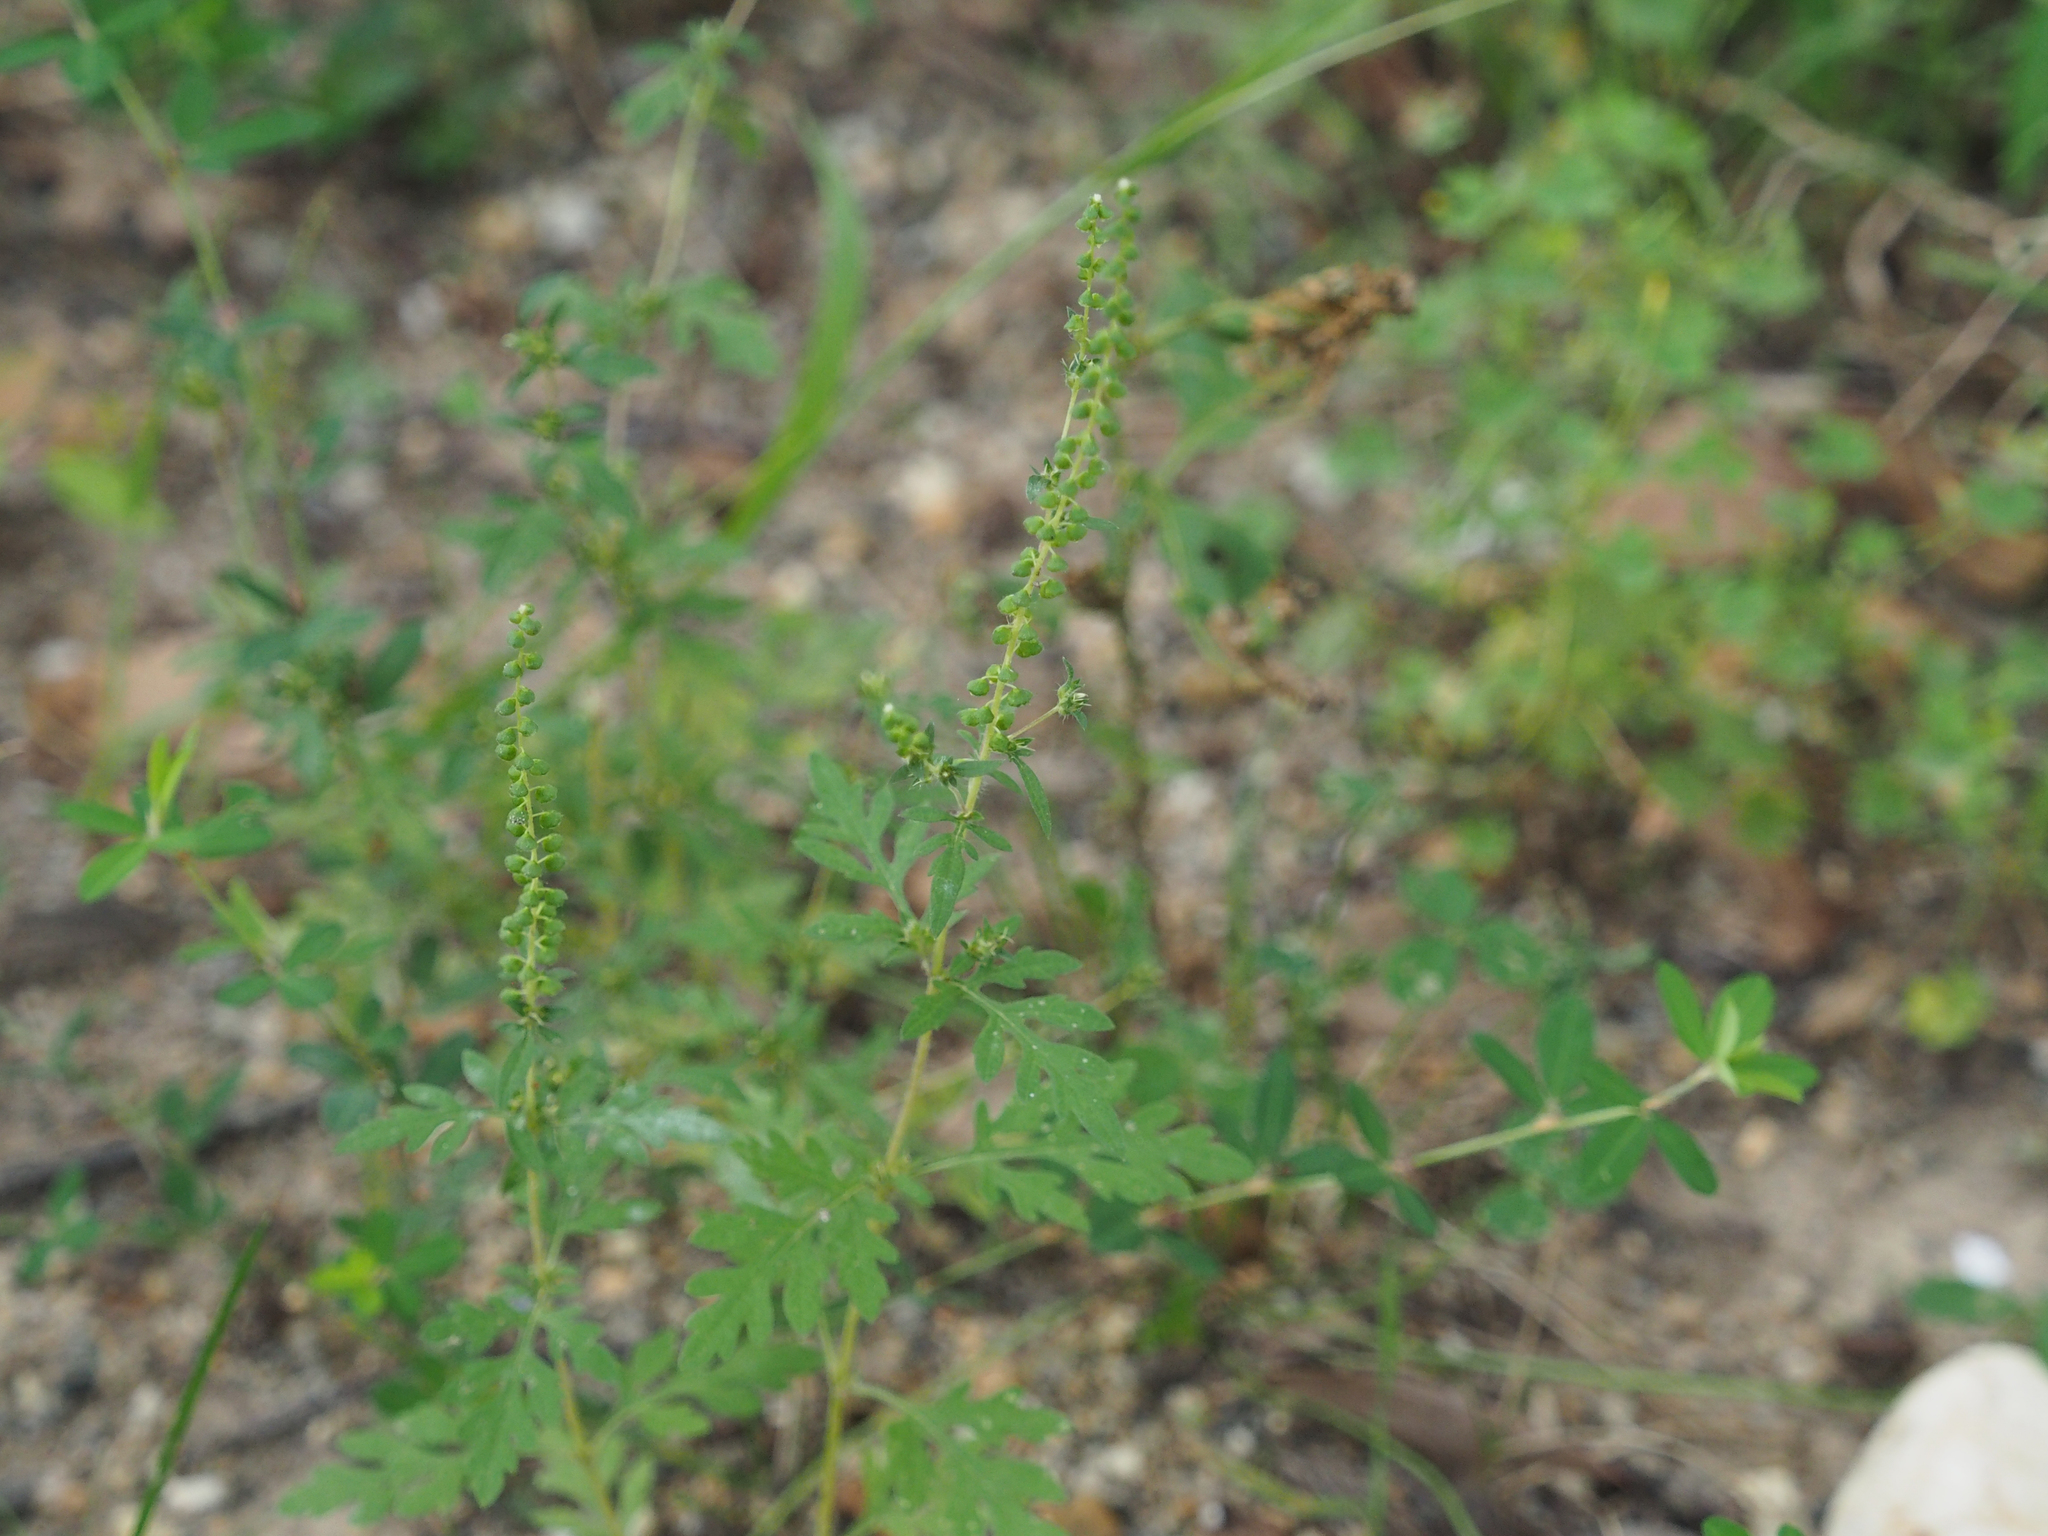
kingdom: Plantae
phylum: Tracheophyta
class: Magnoliopsida
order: Asterales
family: Asteraceae
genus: Ambrosia
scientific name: Ambrosia artemisiifolia
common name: Annual ragweed
